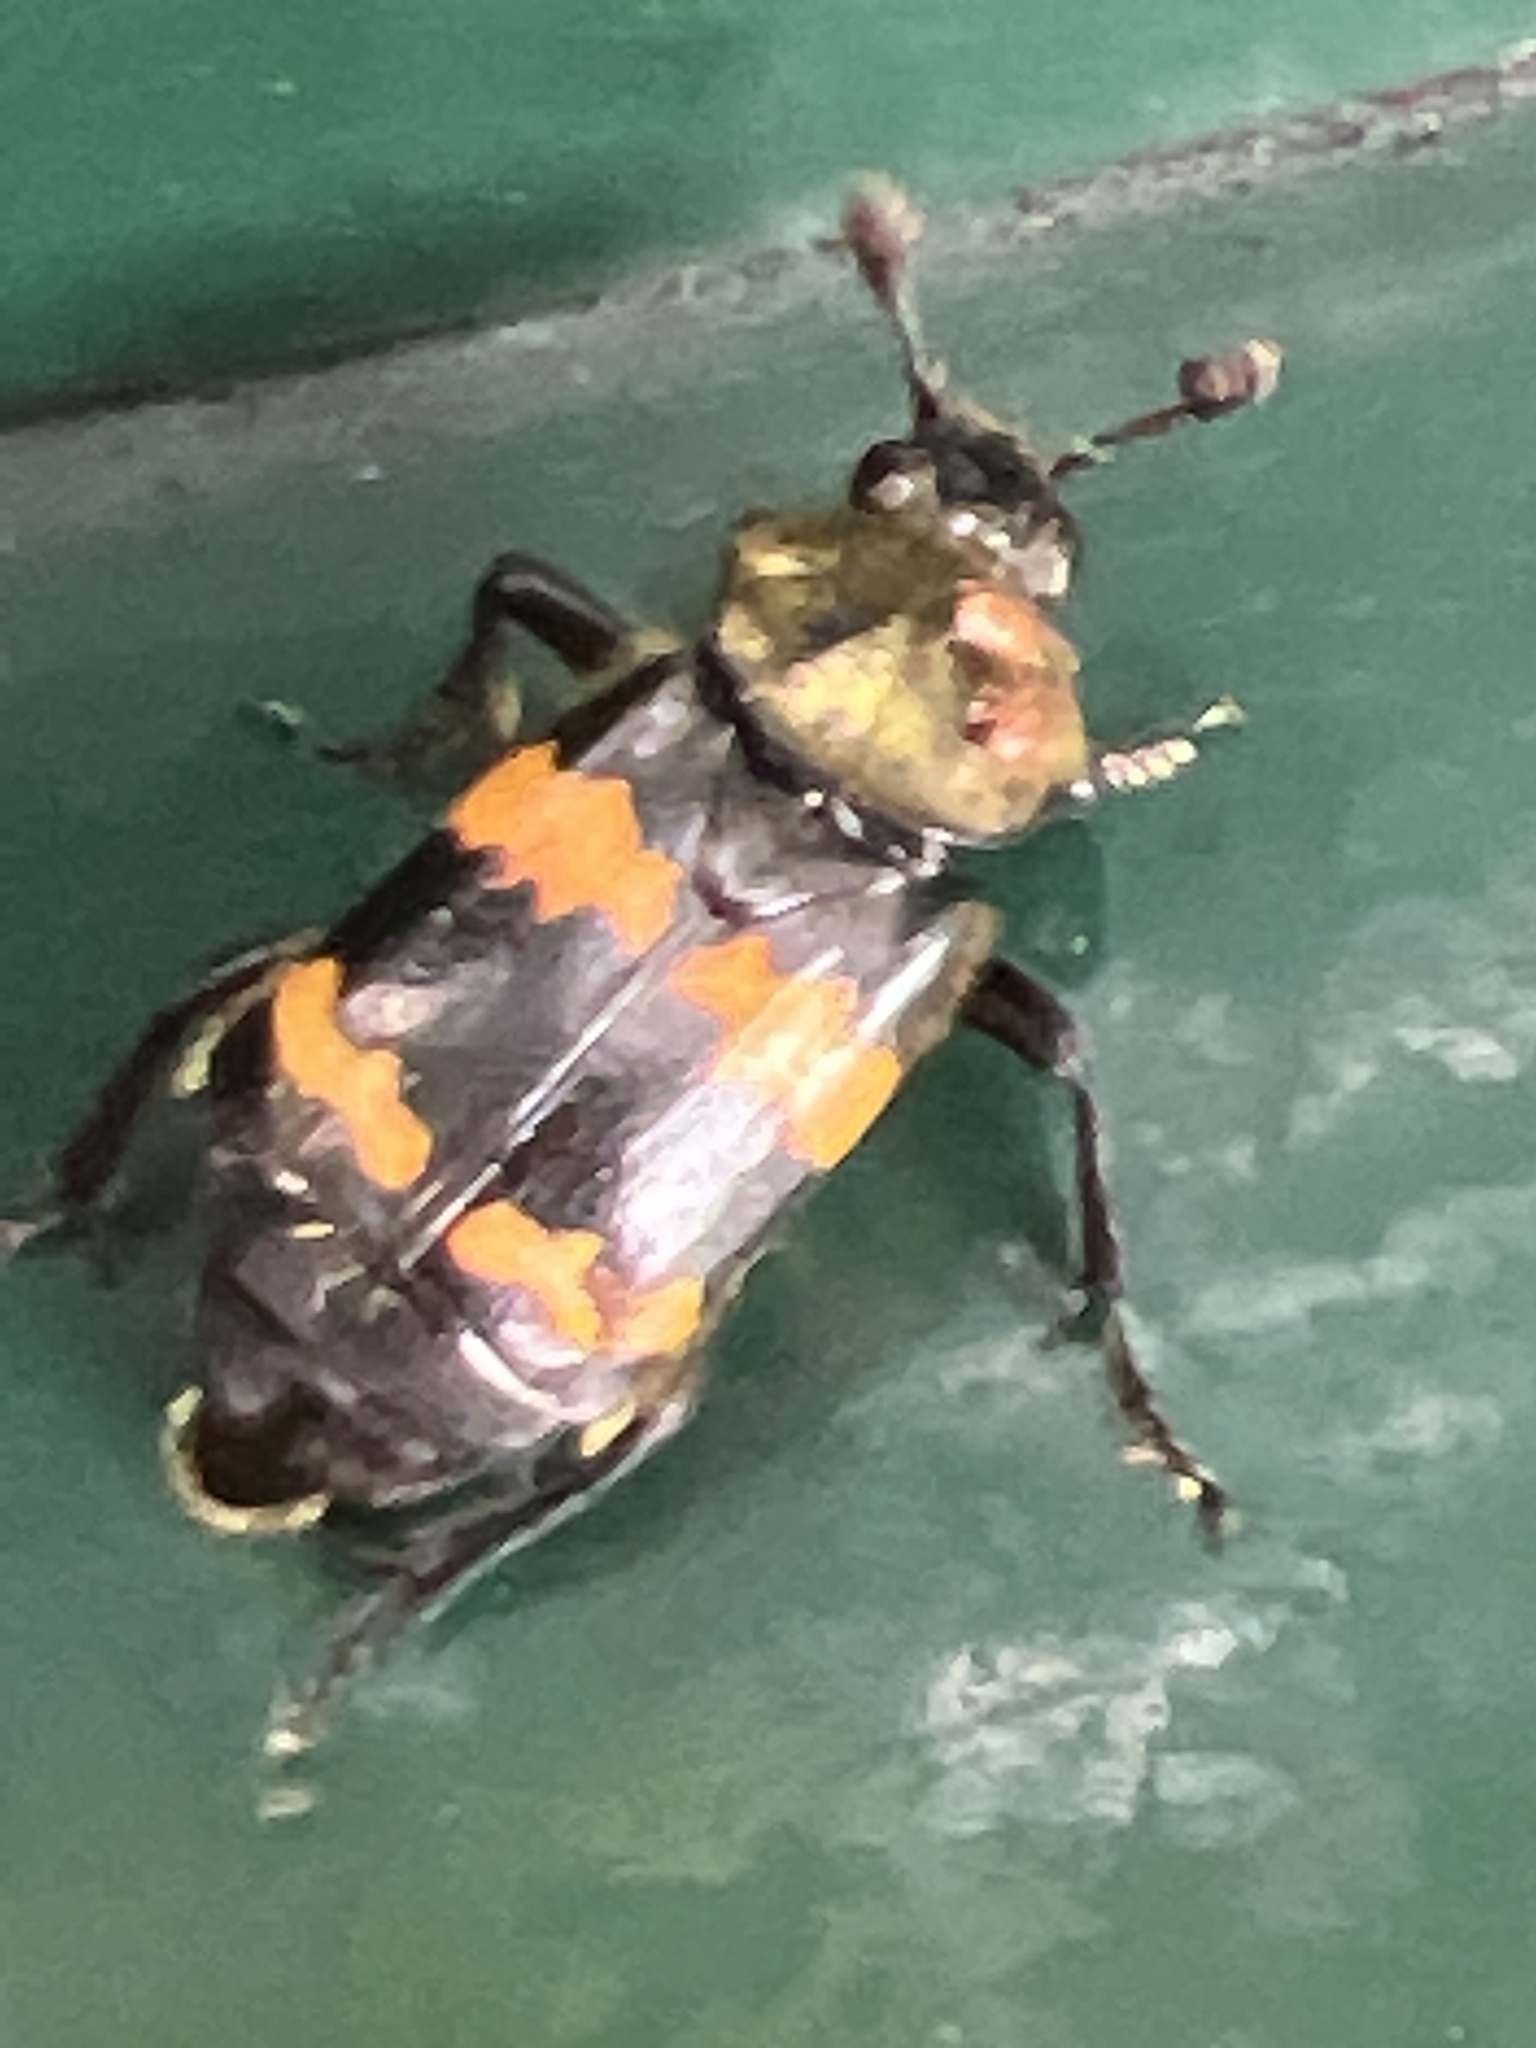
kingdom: Animalia
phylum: Arthropoda
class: Insecta
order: Coleoptera
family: Staphylinidae
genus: Nicrophorus
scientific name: Nicrophorus tomentosus
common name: Tomentose burying beetle
